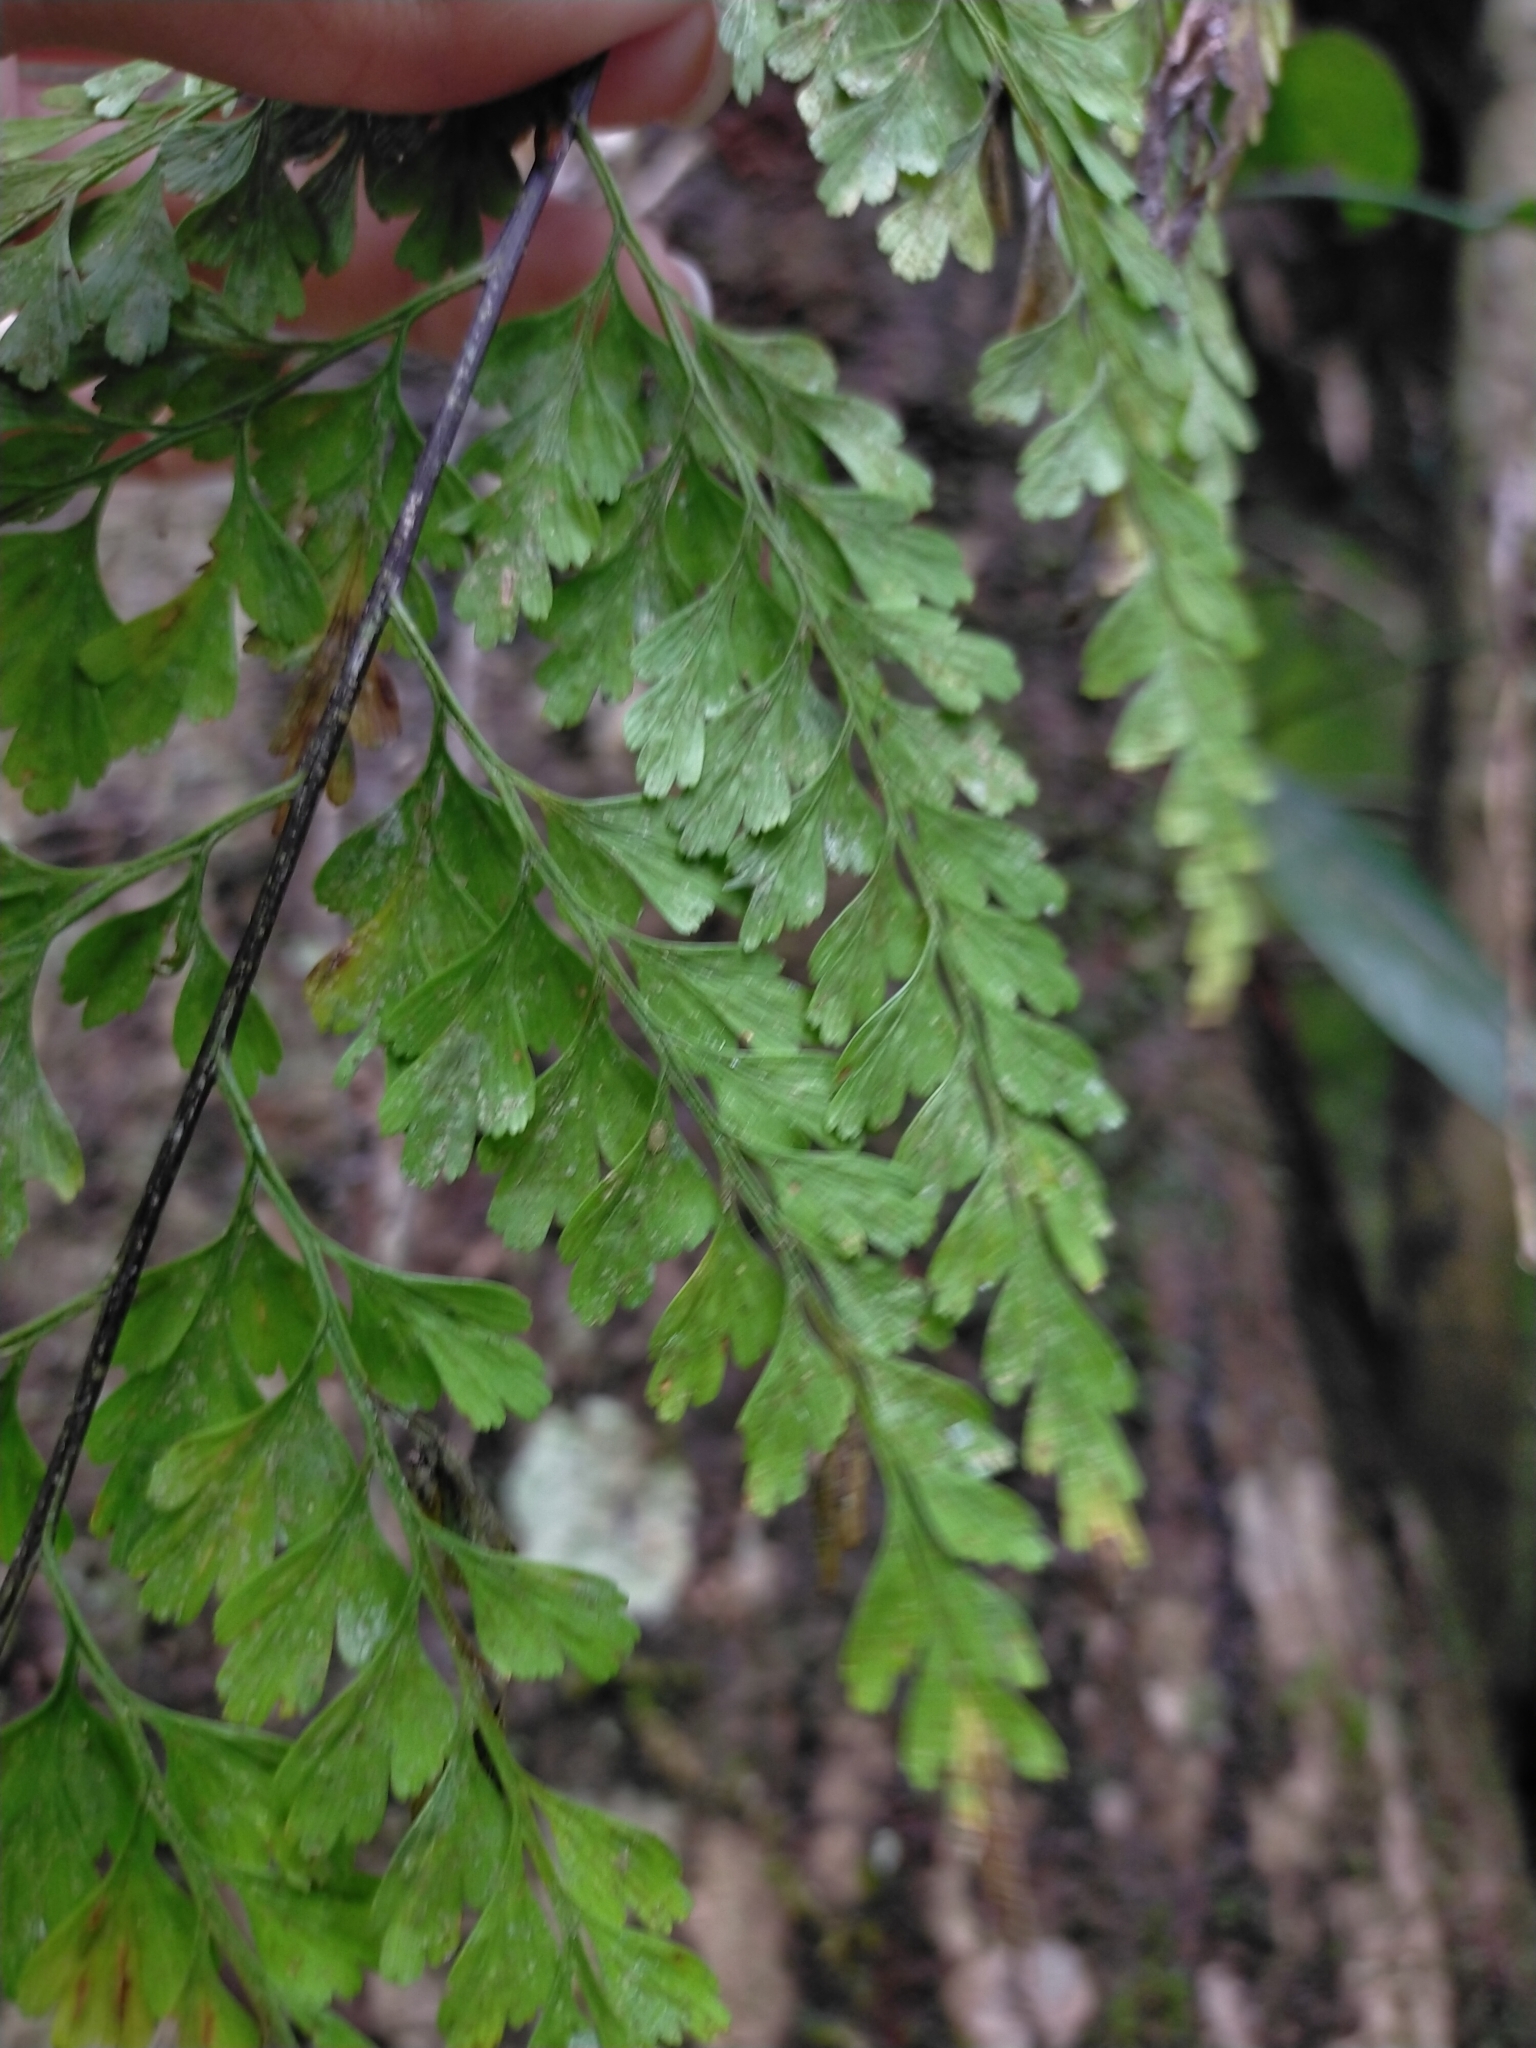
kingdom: Plantae
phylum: Tracheophyta
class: Polypodiopsida
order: Polypodiales
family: Aspleniaceae
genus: Asplenium
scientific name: Asplenium pseudolaserpitiifolium
